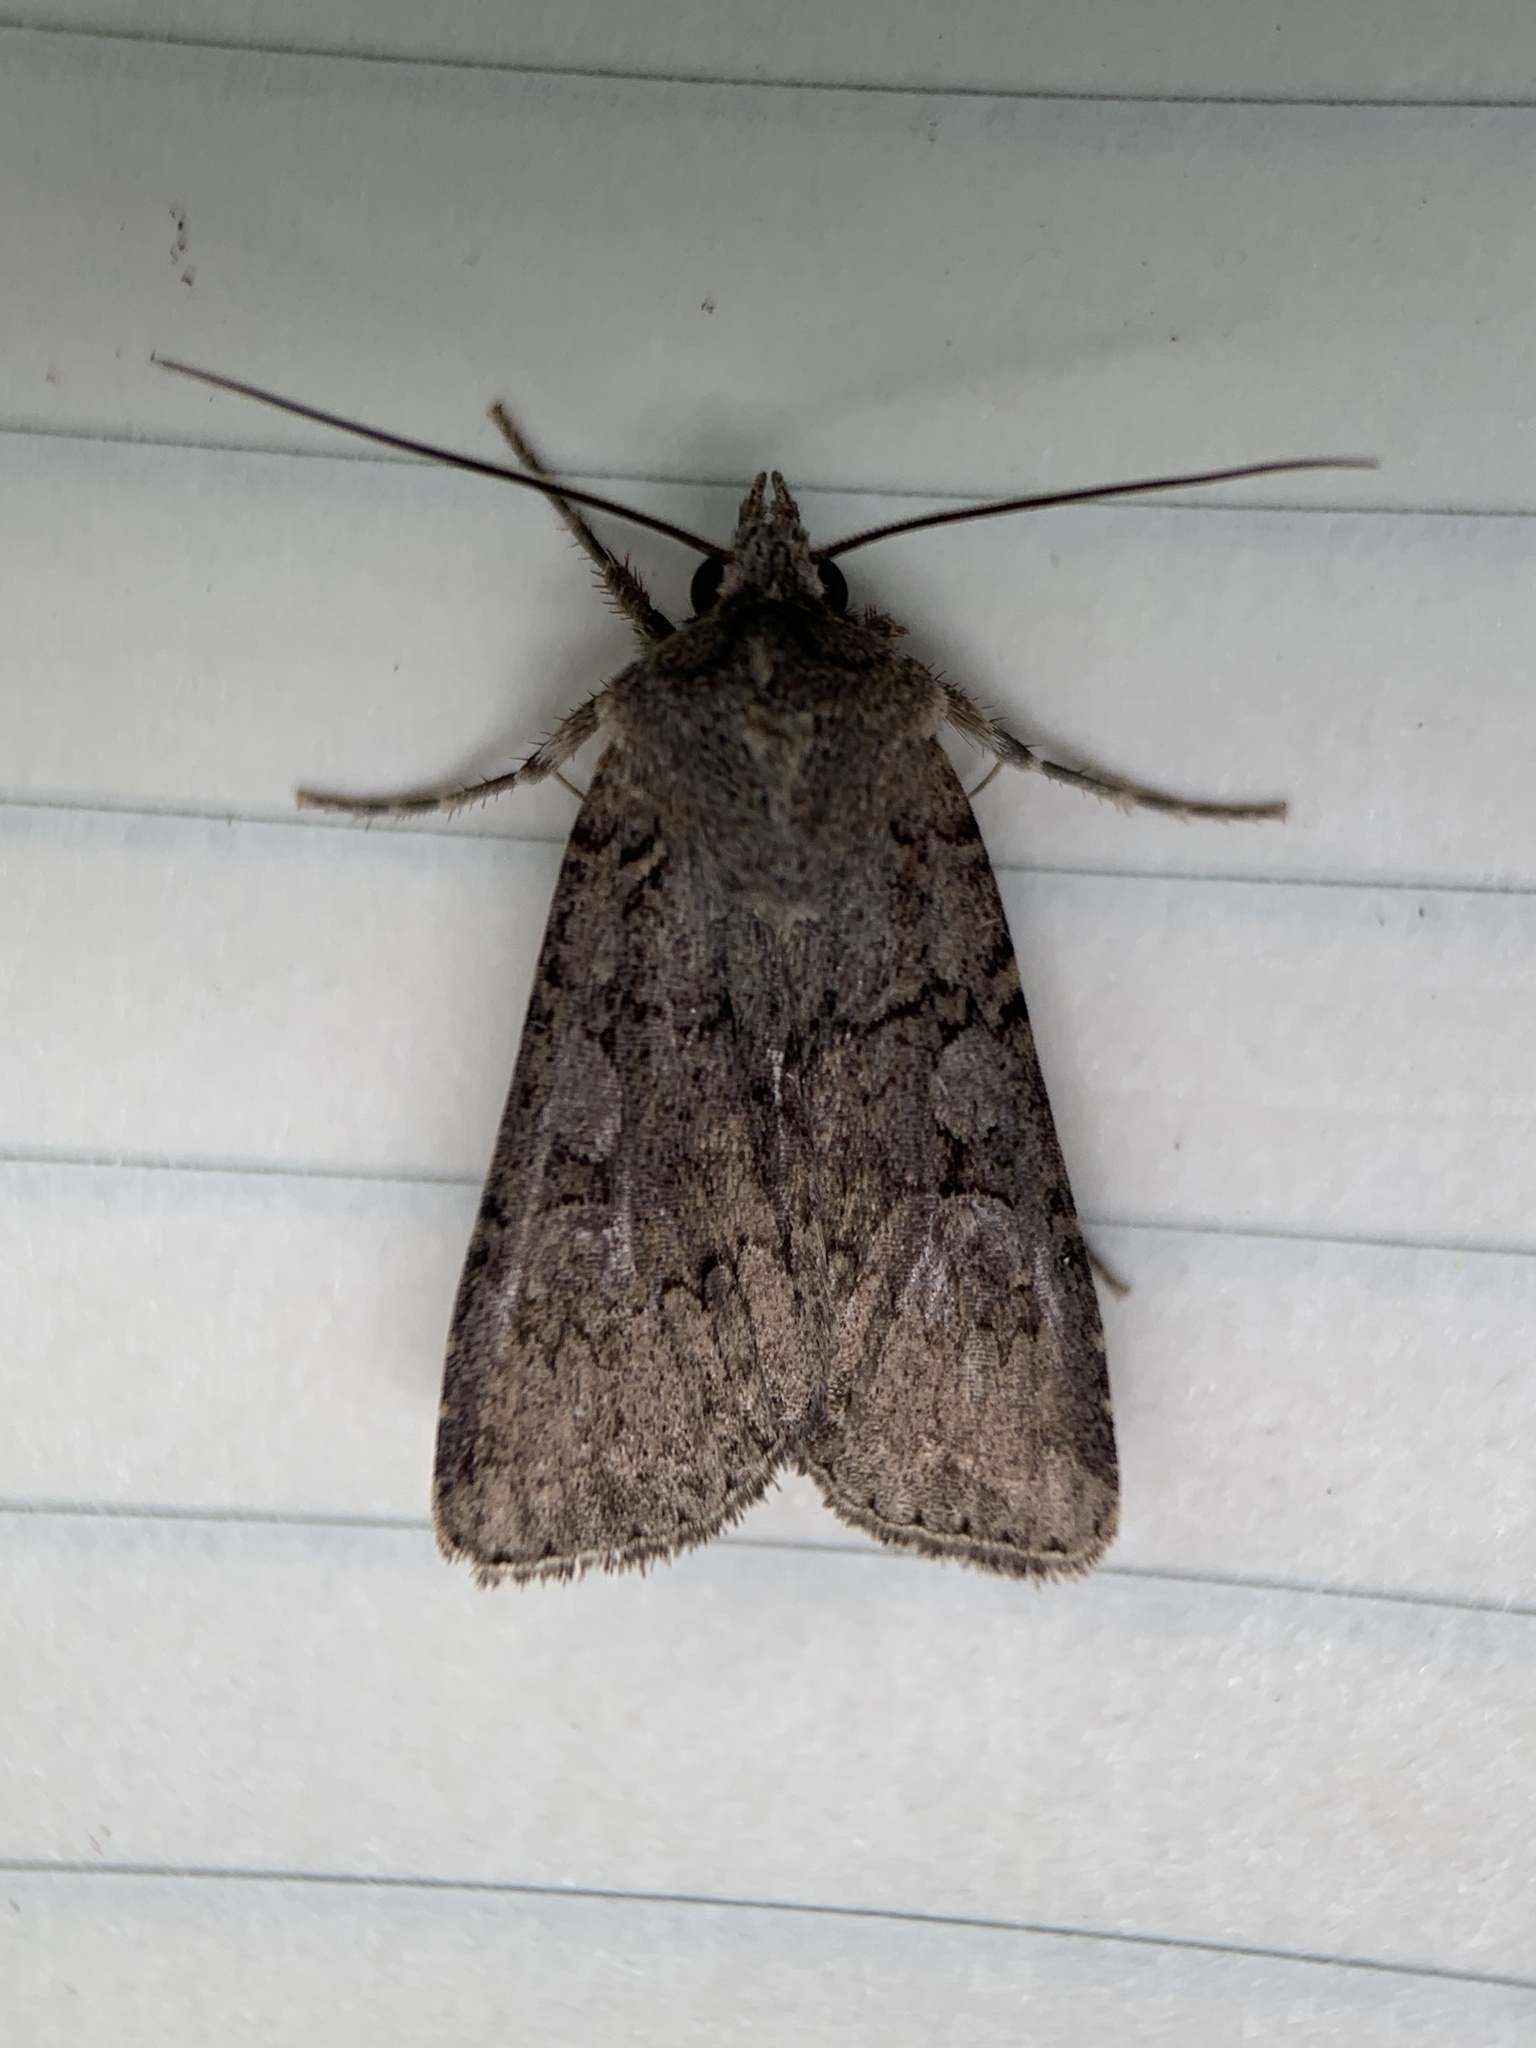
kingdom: Animalia
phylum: Arthropoda
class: Insecta
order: Lepidoptera
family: Noctuidae
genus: Euxoa
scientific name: Euxoa messoria
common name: Darksided cutworm
